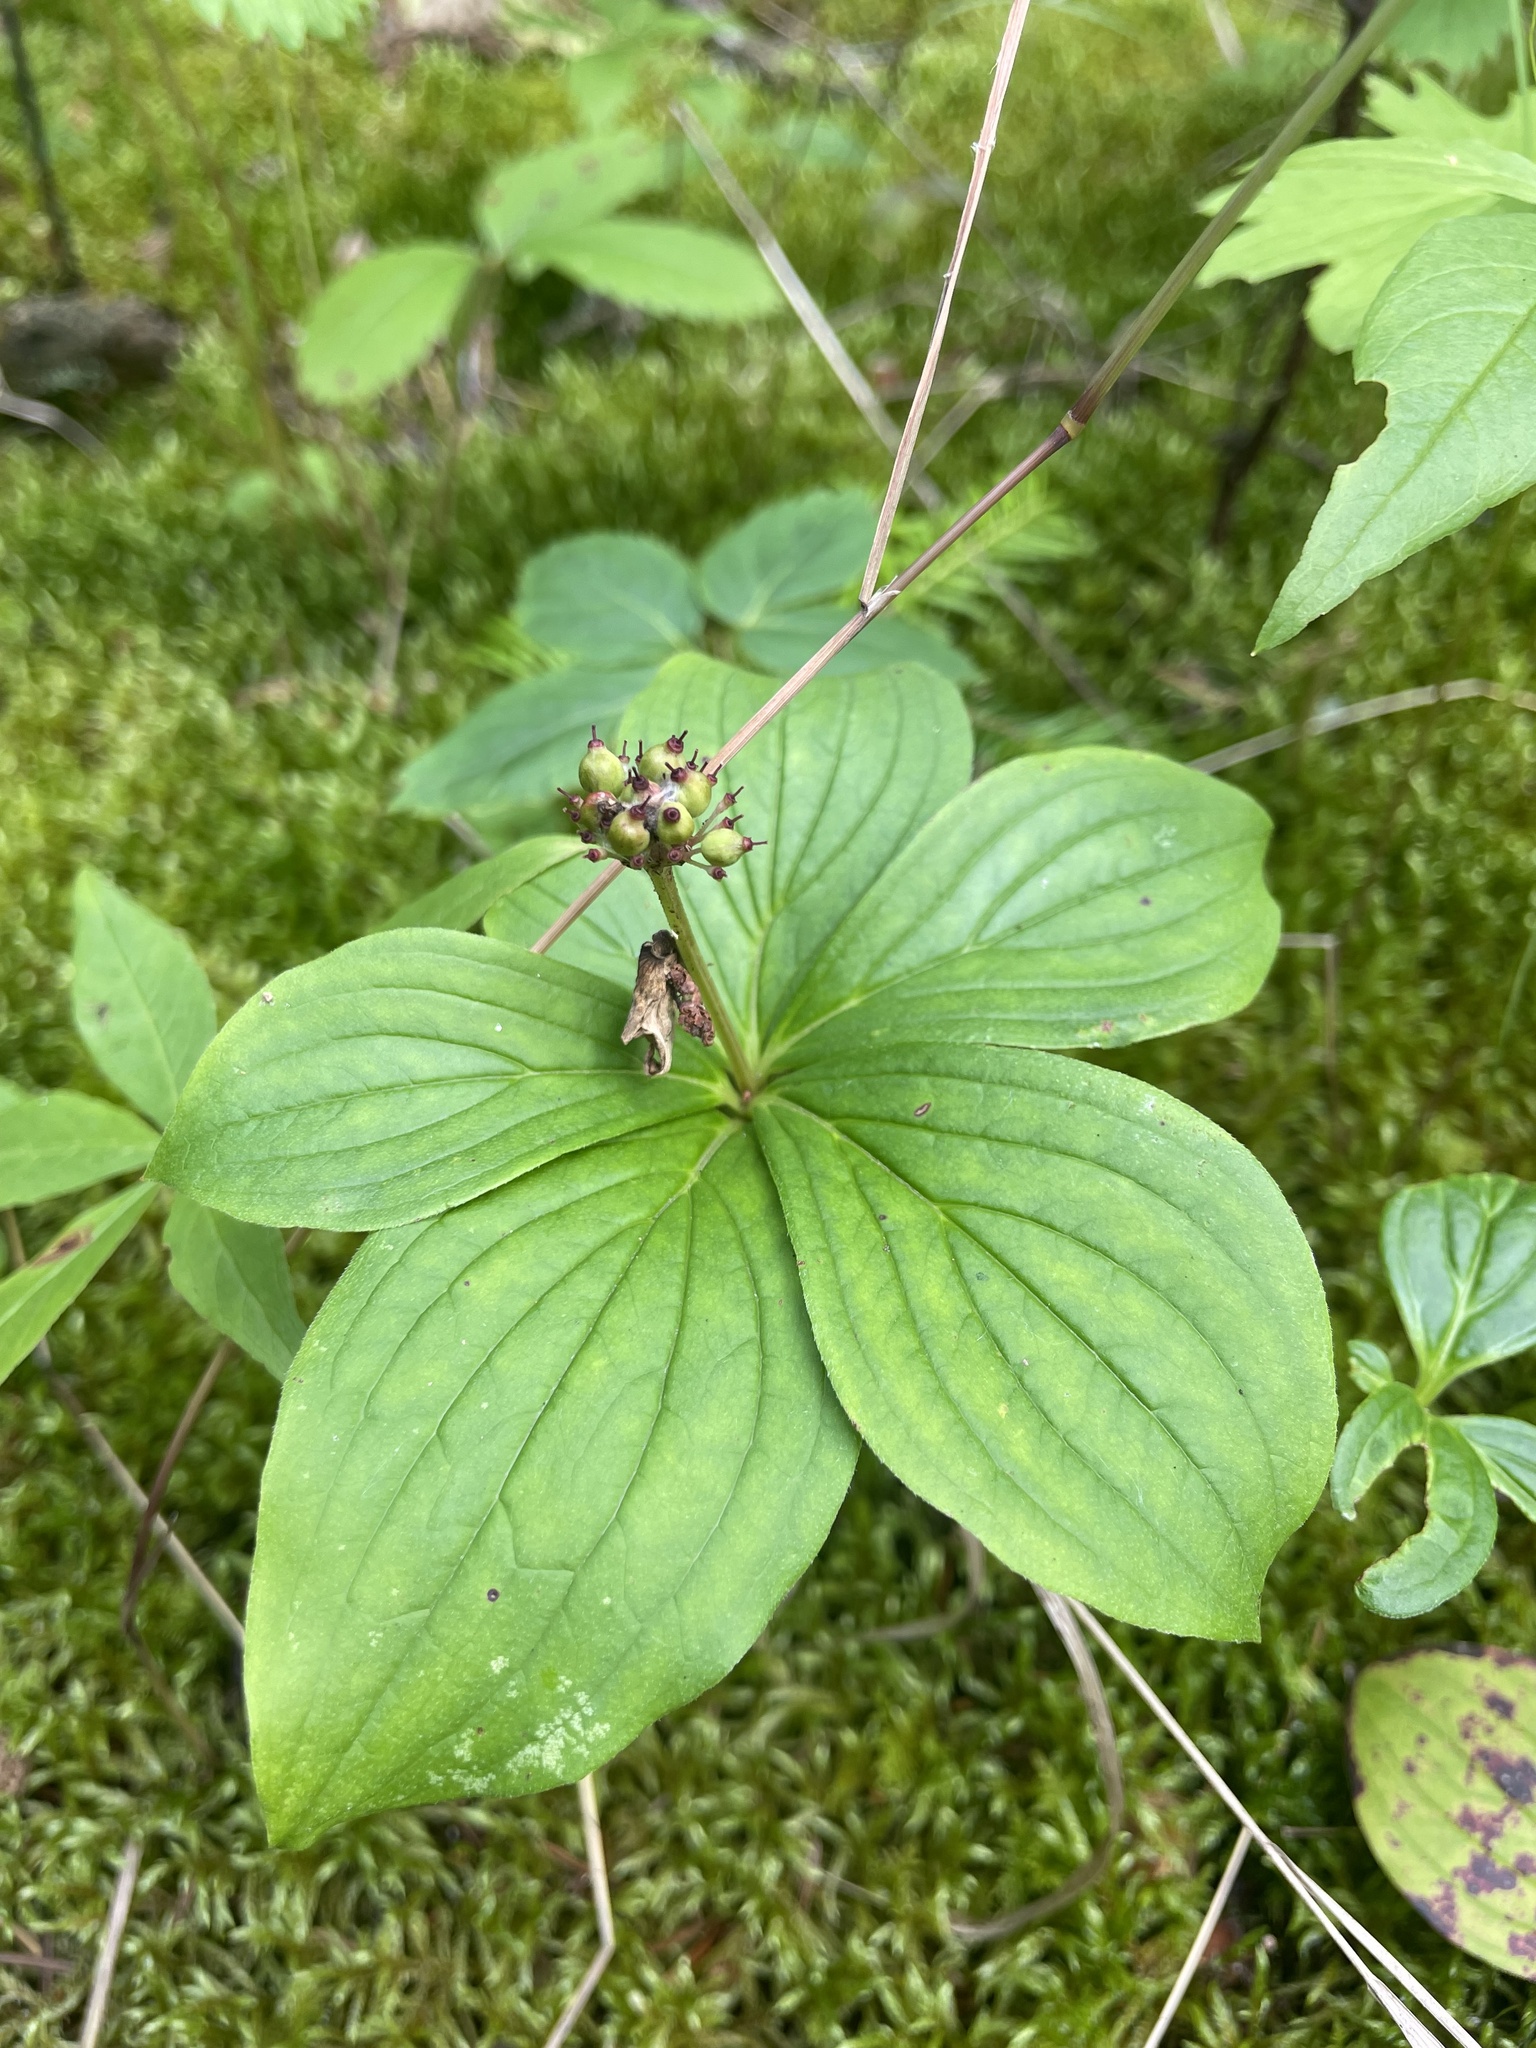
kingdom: Plantae
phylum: Tracheophyta
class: Magnoliopsida
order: Cornales
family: Cornaceae
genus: Cornus
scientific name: Cornus canadensis
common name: Creeping dogwood
